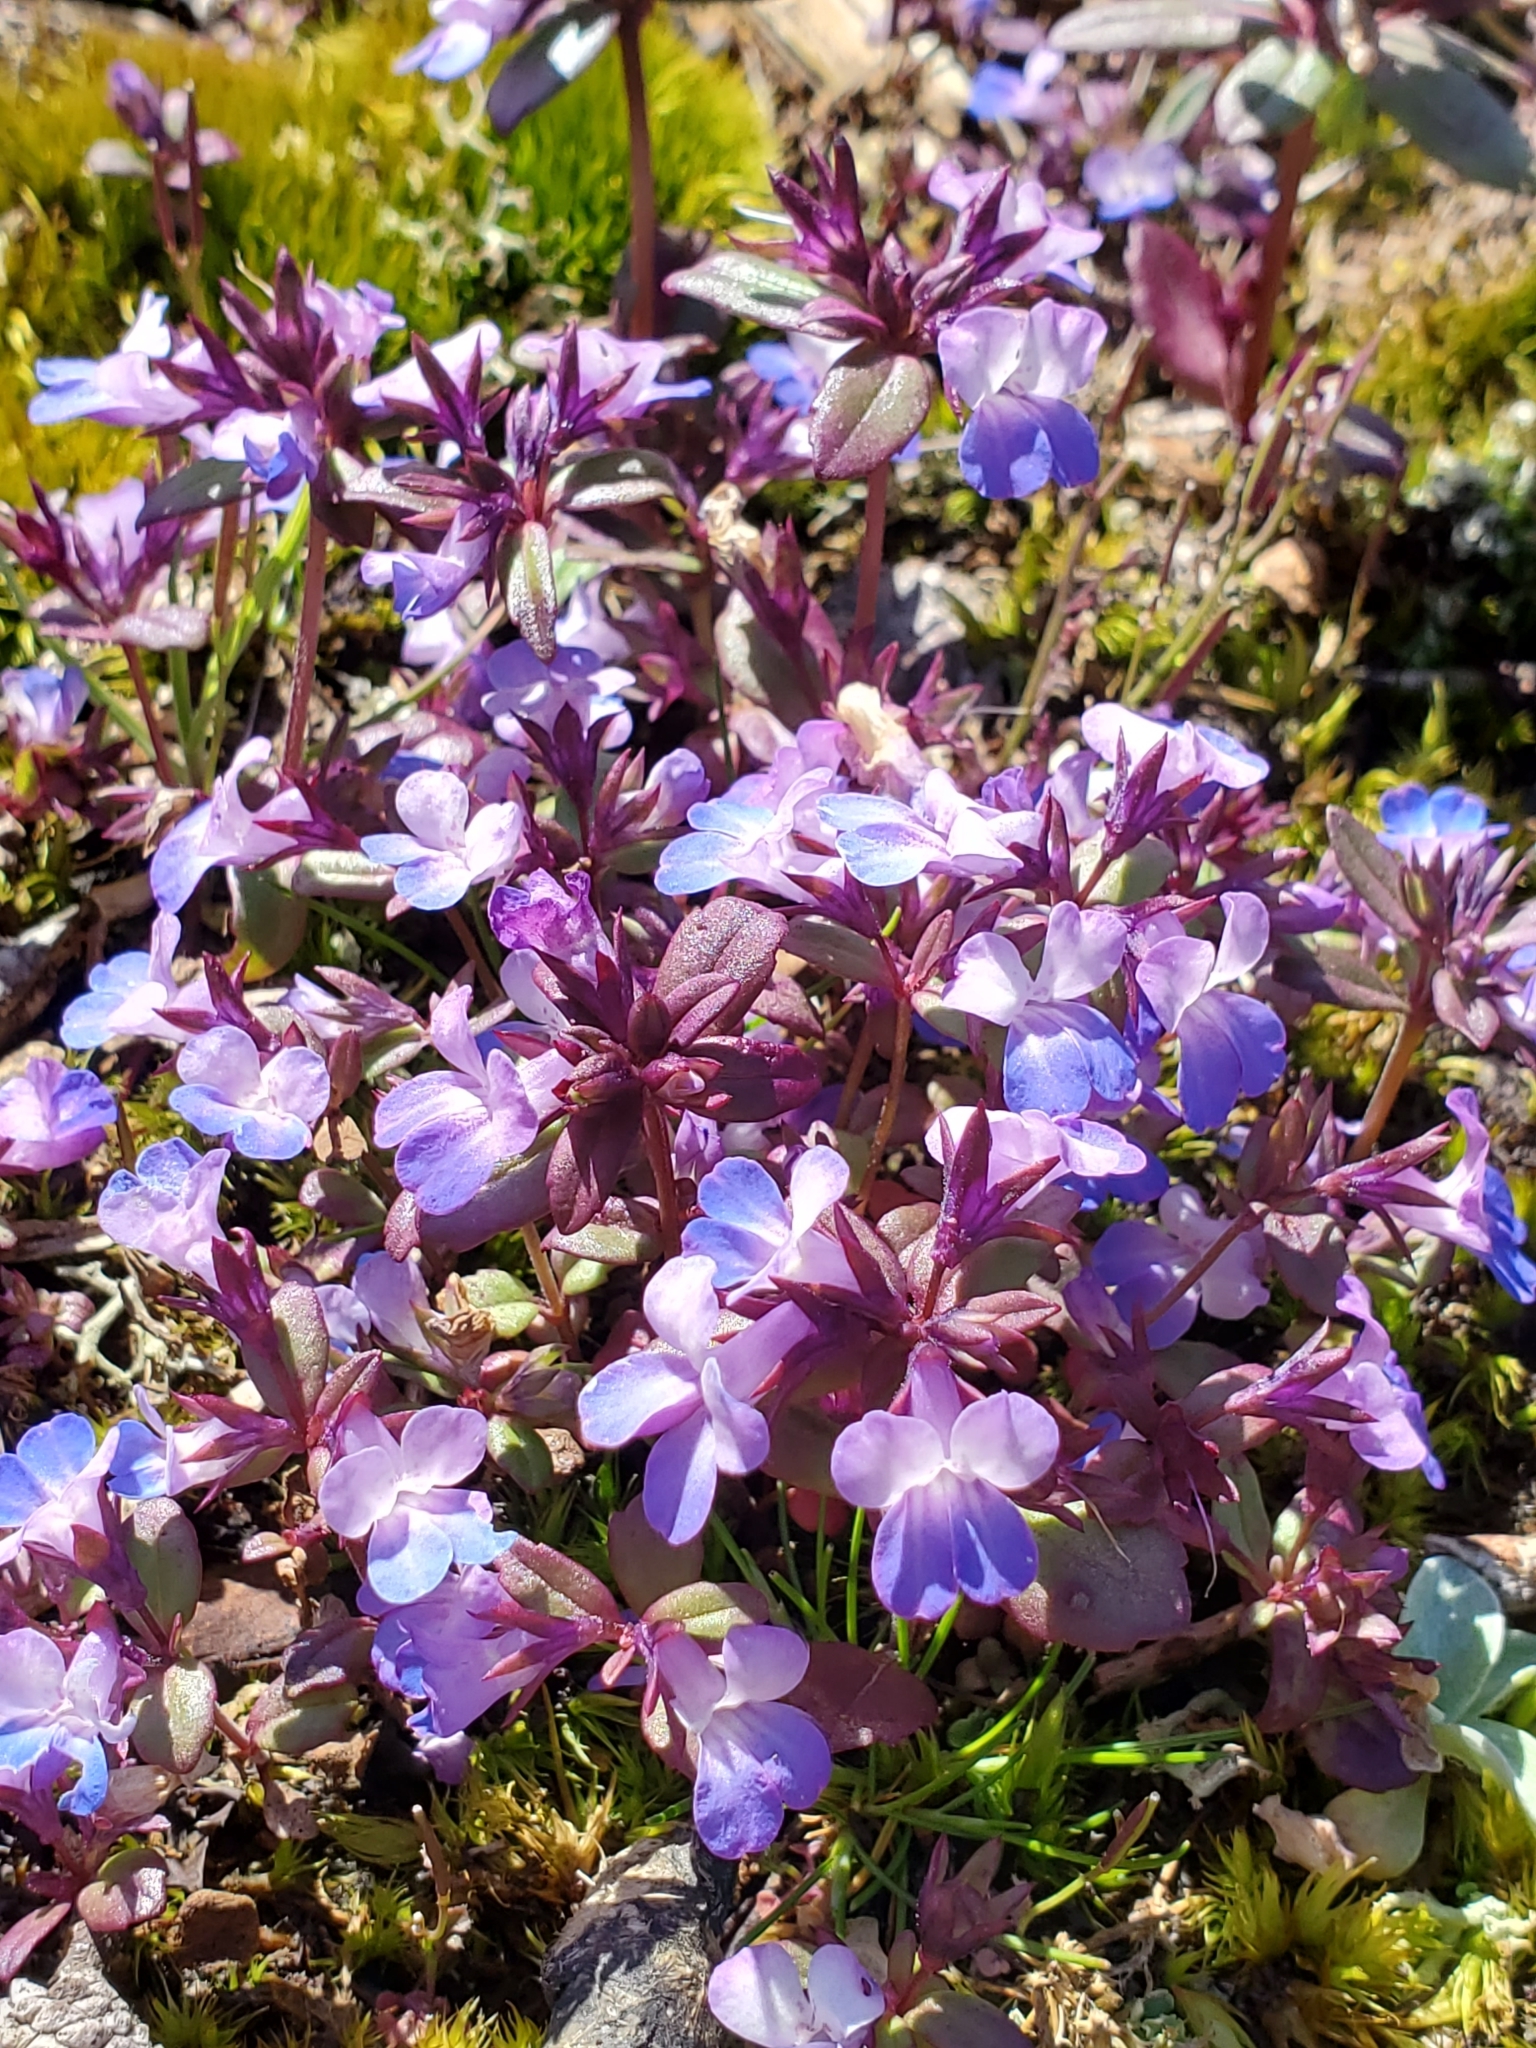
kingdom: Plantae
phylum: Tracheophyta
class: Magnoliopsida
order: Lamiales
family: Plantaginaceae
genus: Collinsia
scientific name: Collinsia grandiflora
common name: Large-flower blue-eyed-mary
